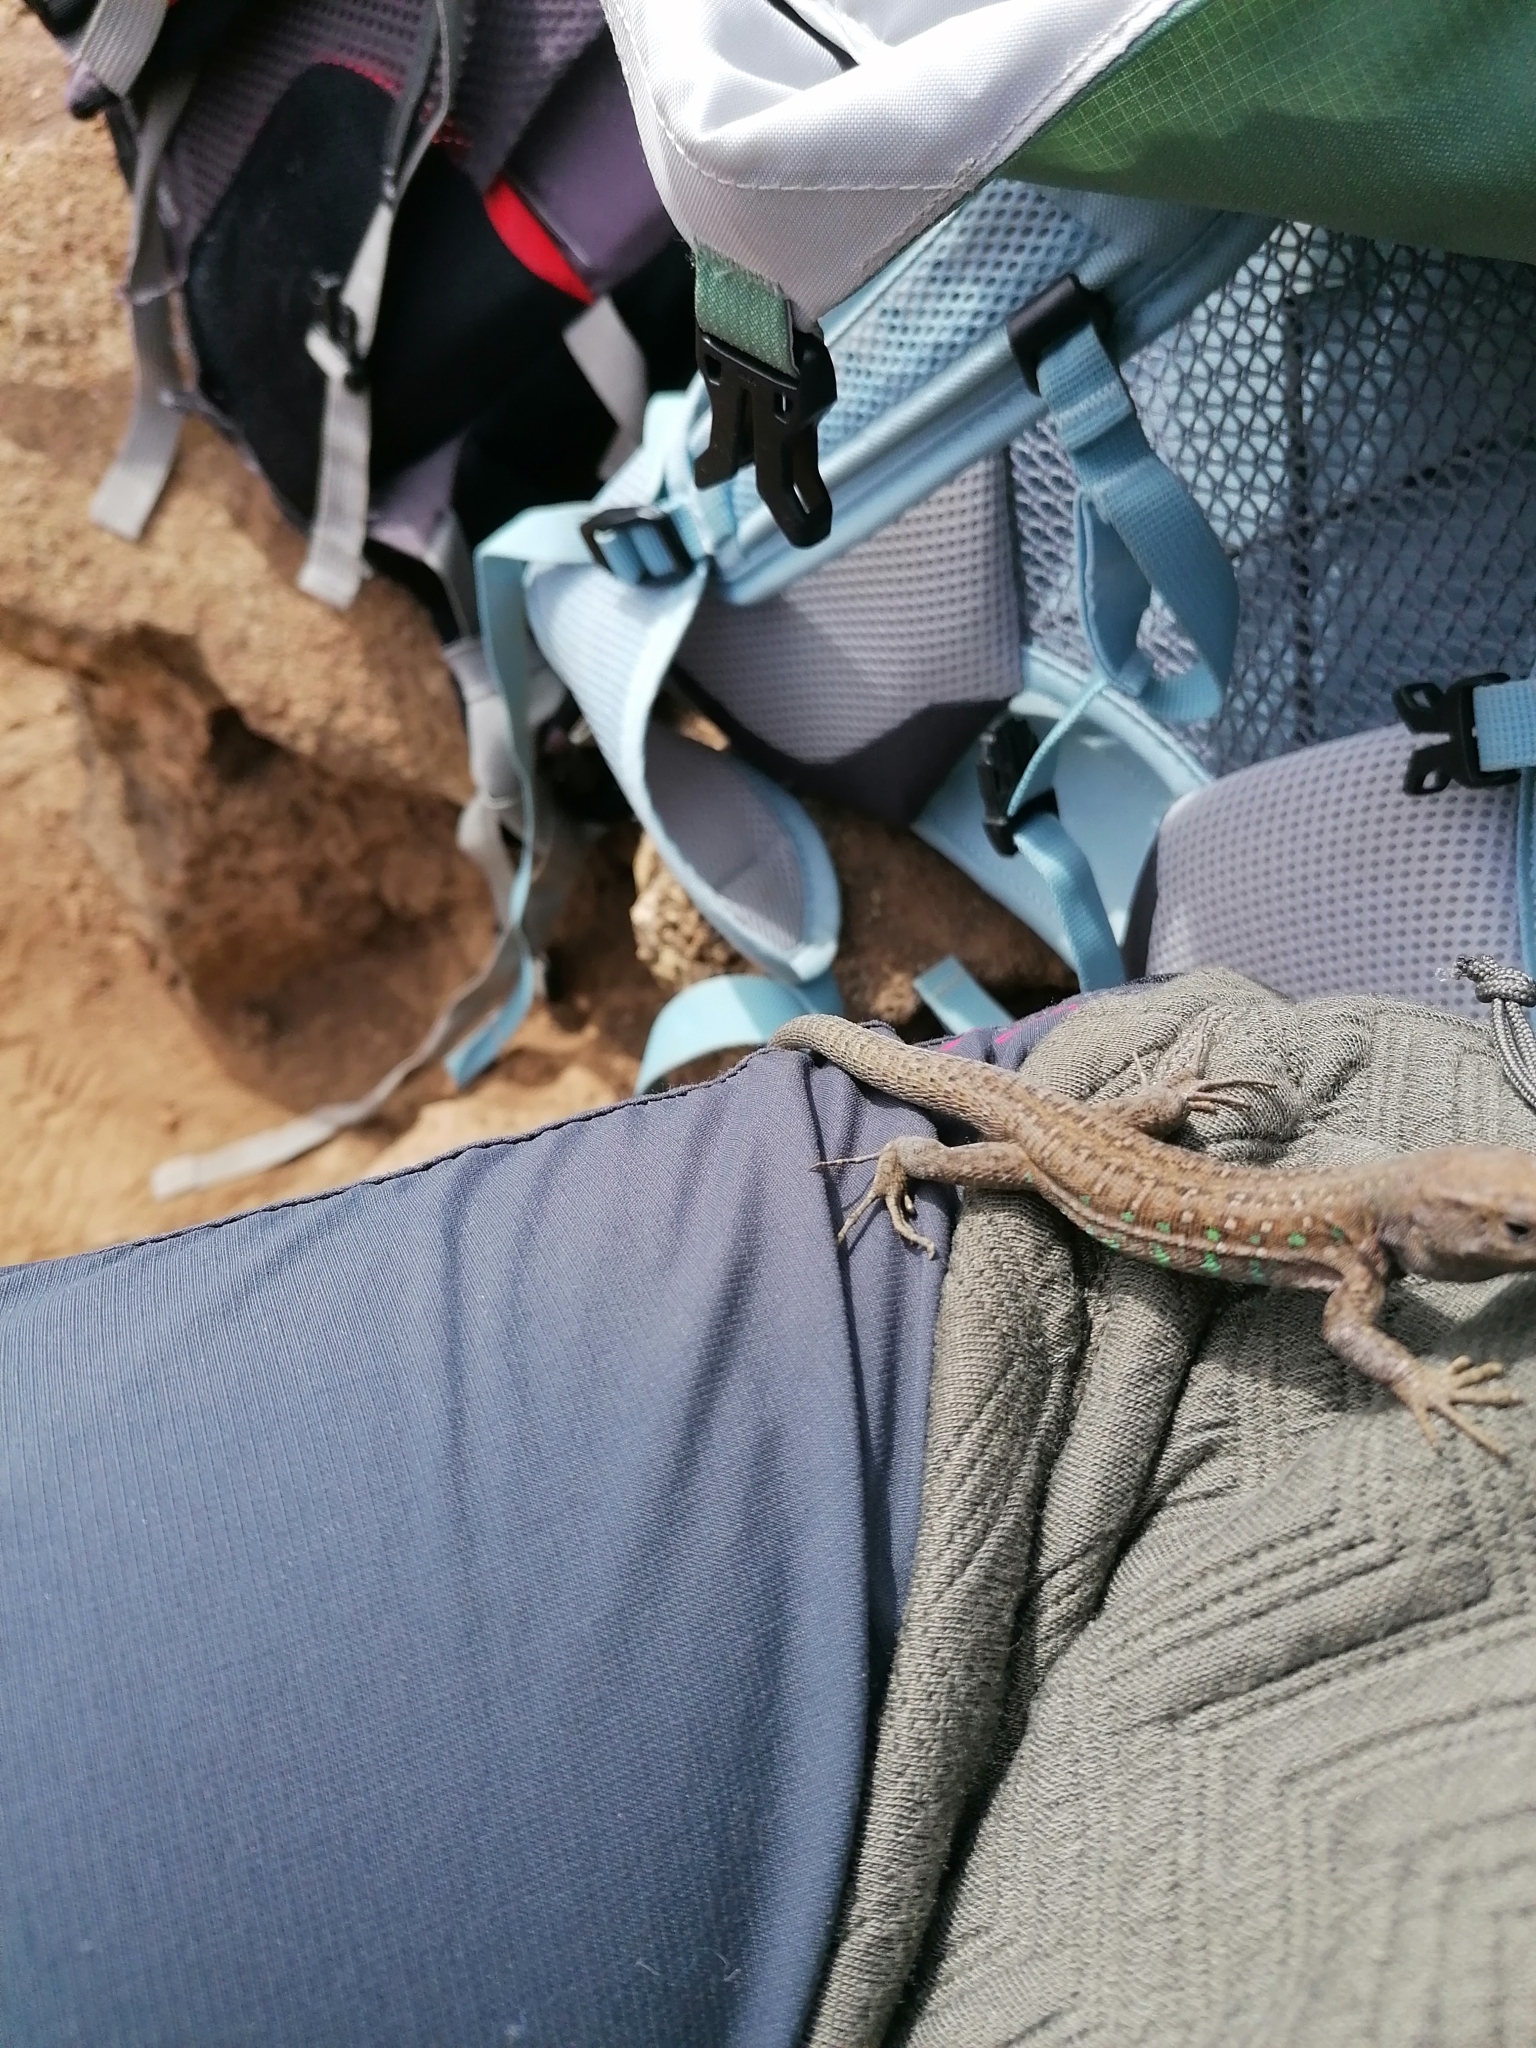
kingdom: Animalia
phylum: Chordata
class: Squamata
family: Lacertidae
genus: Gallotia
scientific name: Gallotia atlantica
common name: Atlantic lizard
